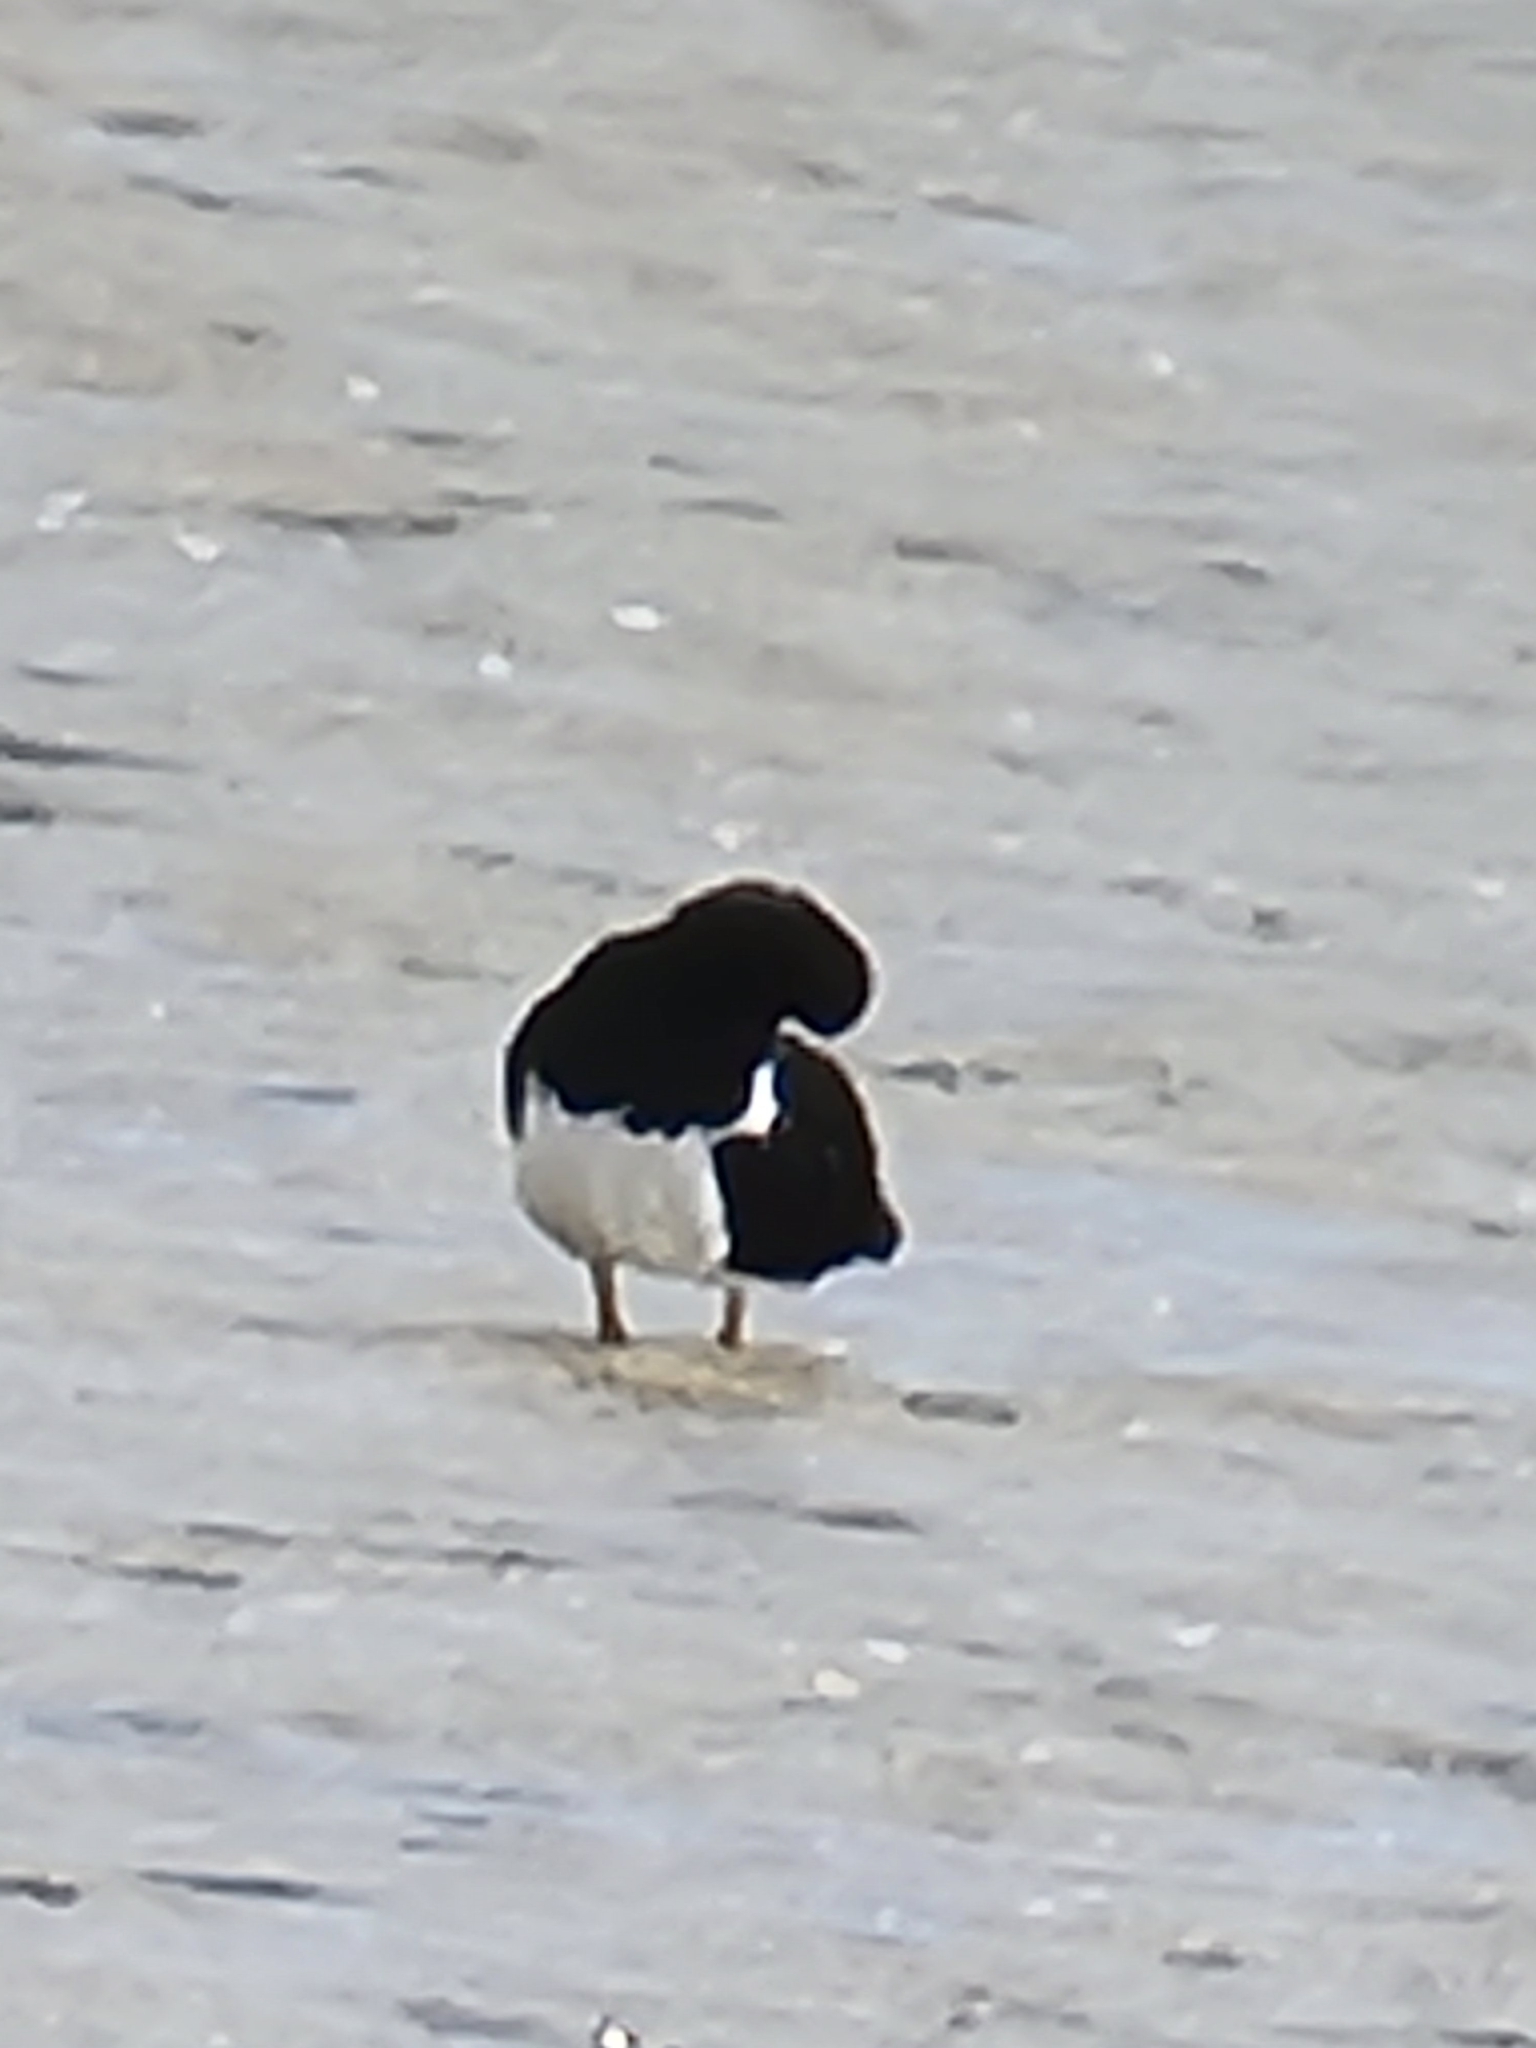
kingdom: Animalia
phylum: Chordata
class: Aves
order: Charadriiformes
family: Haematopodidae
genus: Haematopus
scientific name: Haematopus longirostris
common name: Pied oystercatcher
